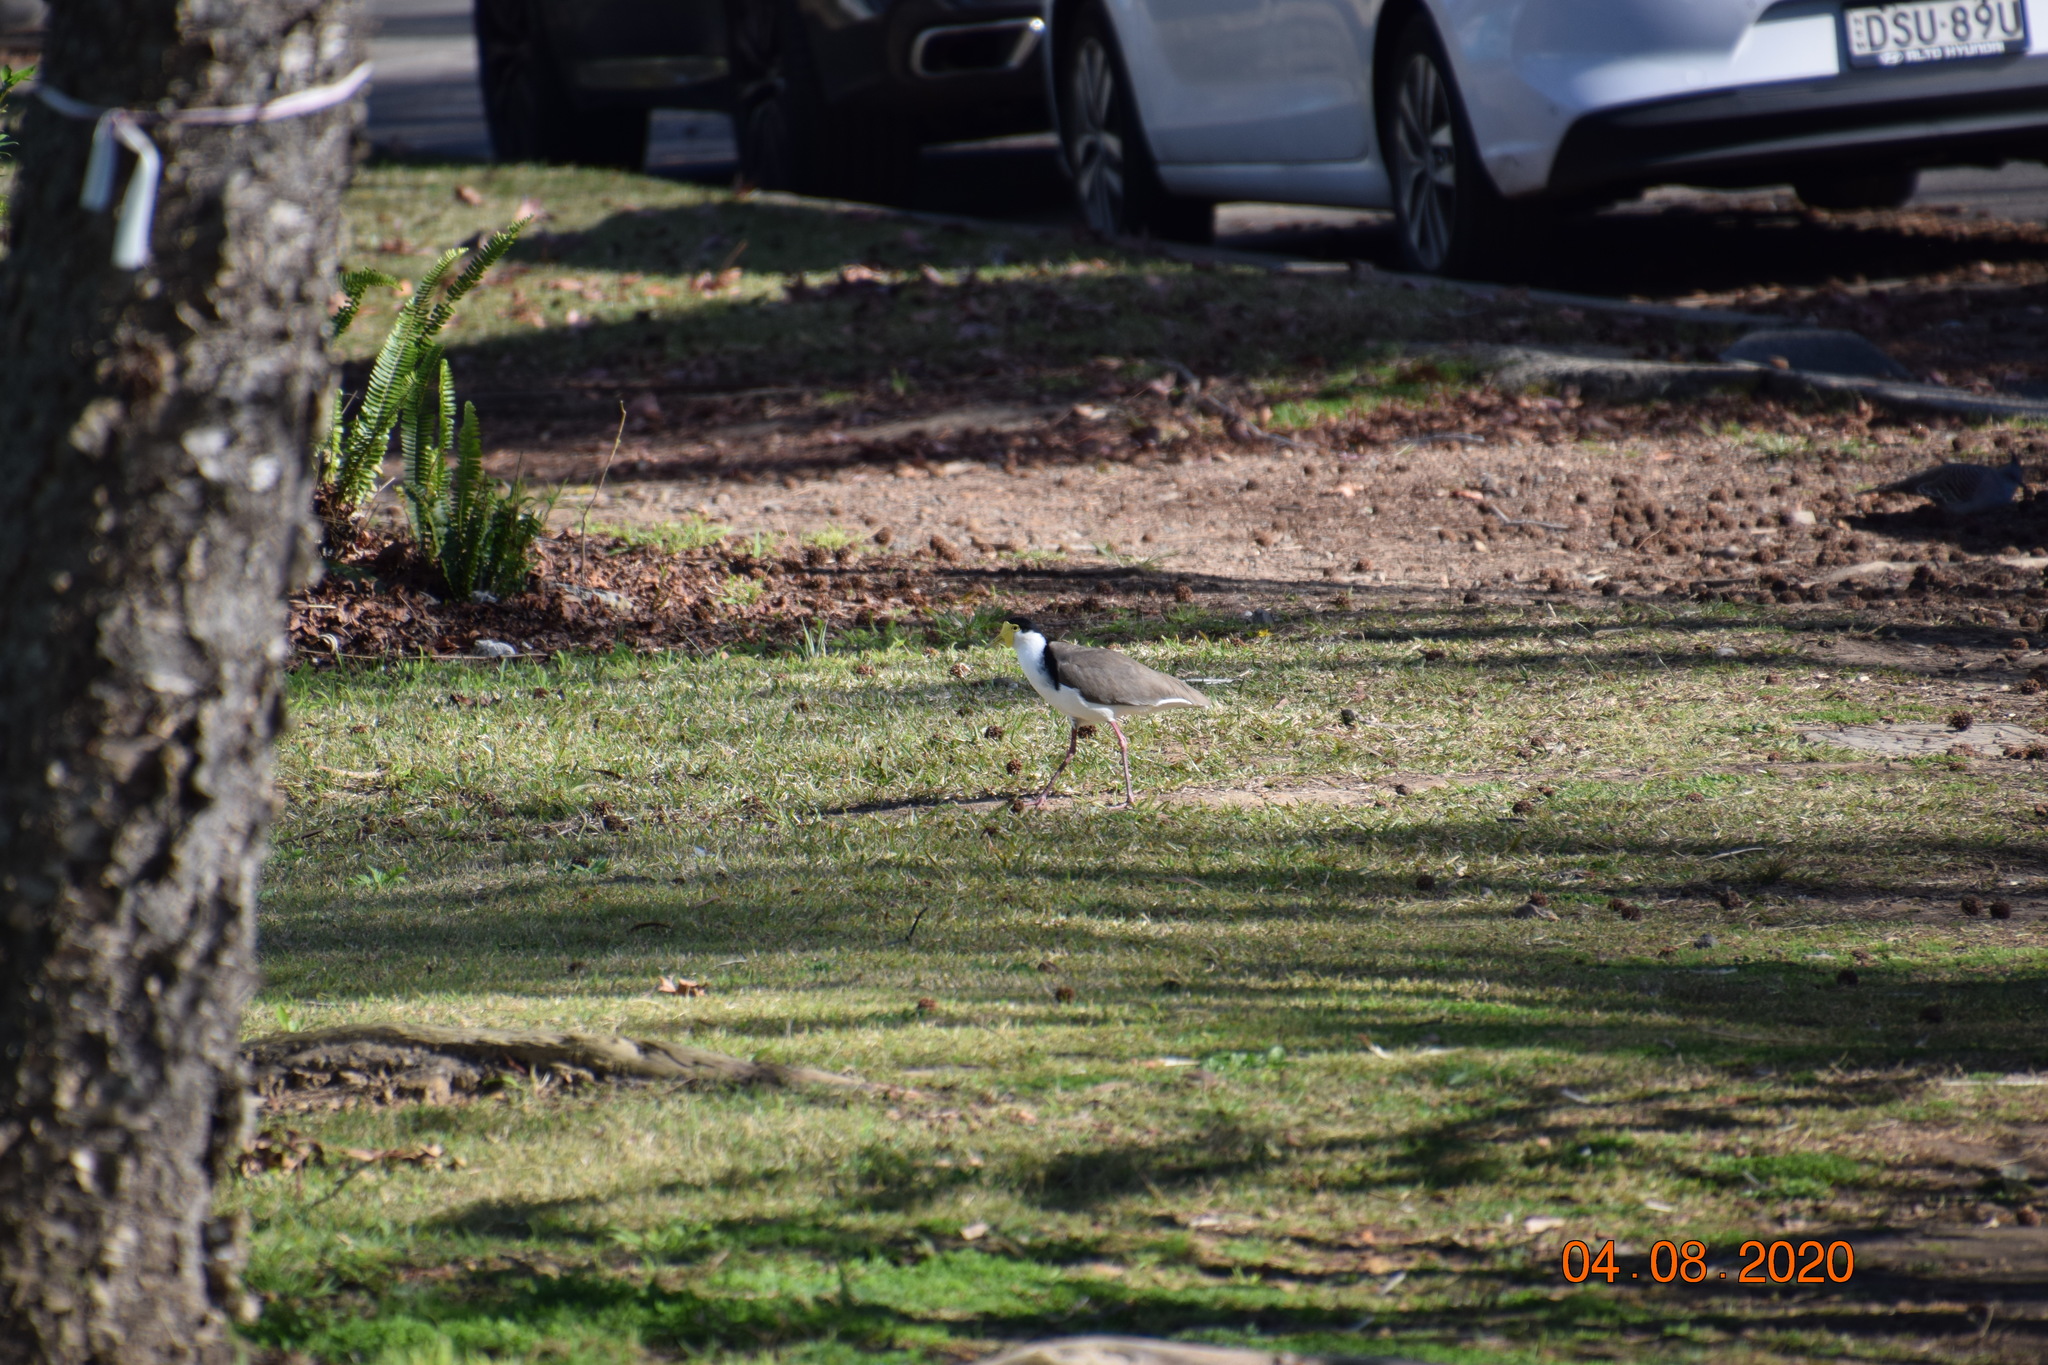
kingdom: Animalia
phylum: Chordata
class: Aves
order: Charadriiformes
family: Charadriidae
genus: Vanellus
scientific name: Vanellus miles
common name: Masked lapwing
